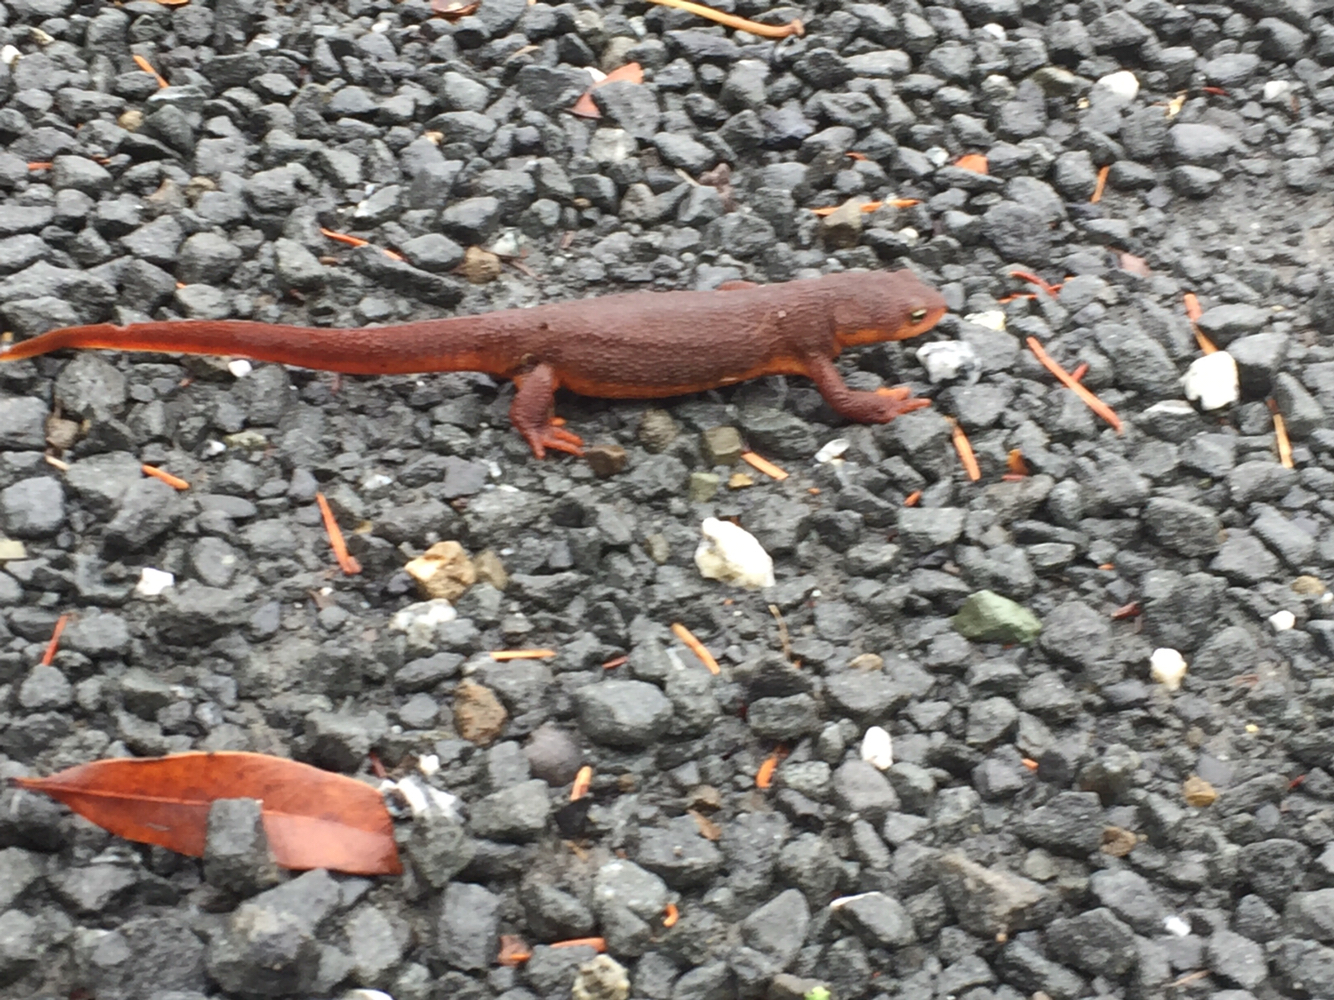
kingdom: Animalia
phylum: Chordata
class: Amphibia
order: Caudata
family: Salamandridae
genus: Taricha
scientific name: Taricha torosa
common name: California newt
